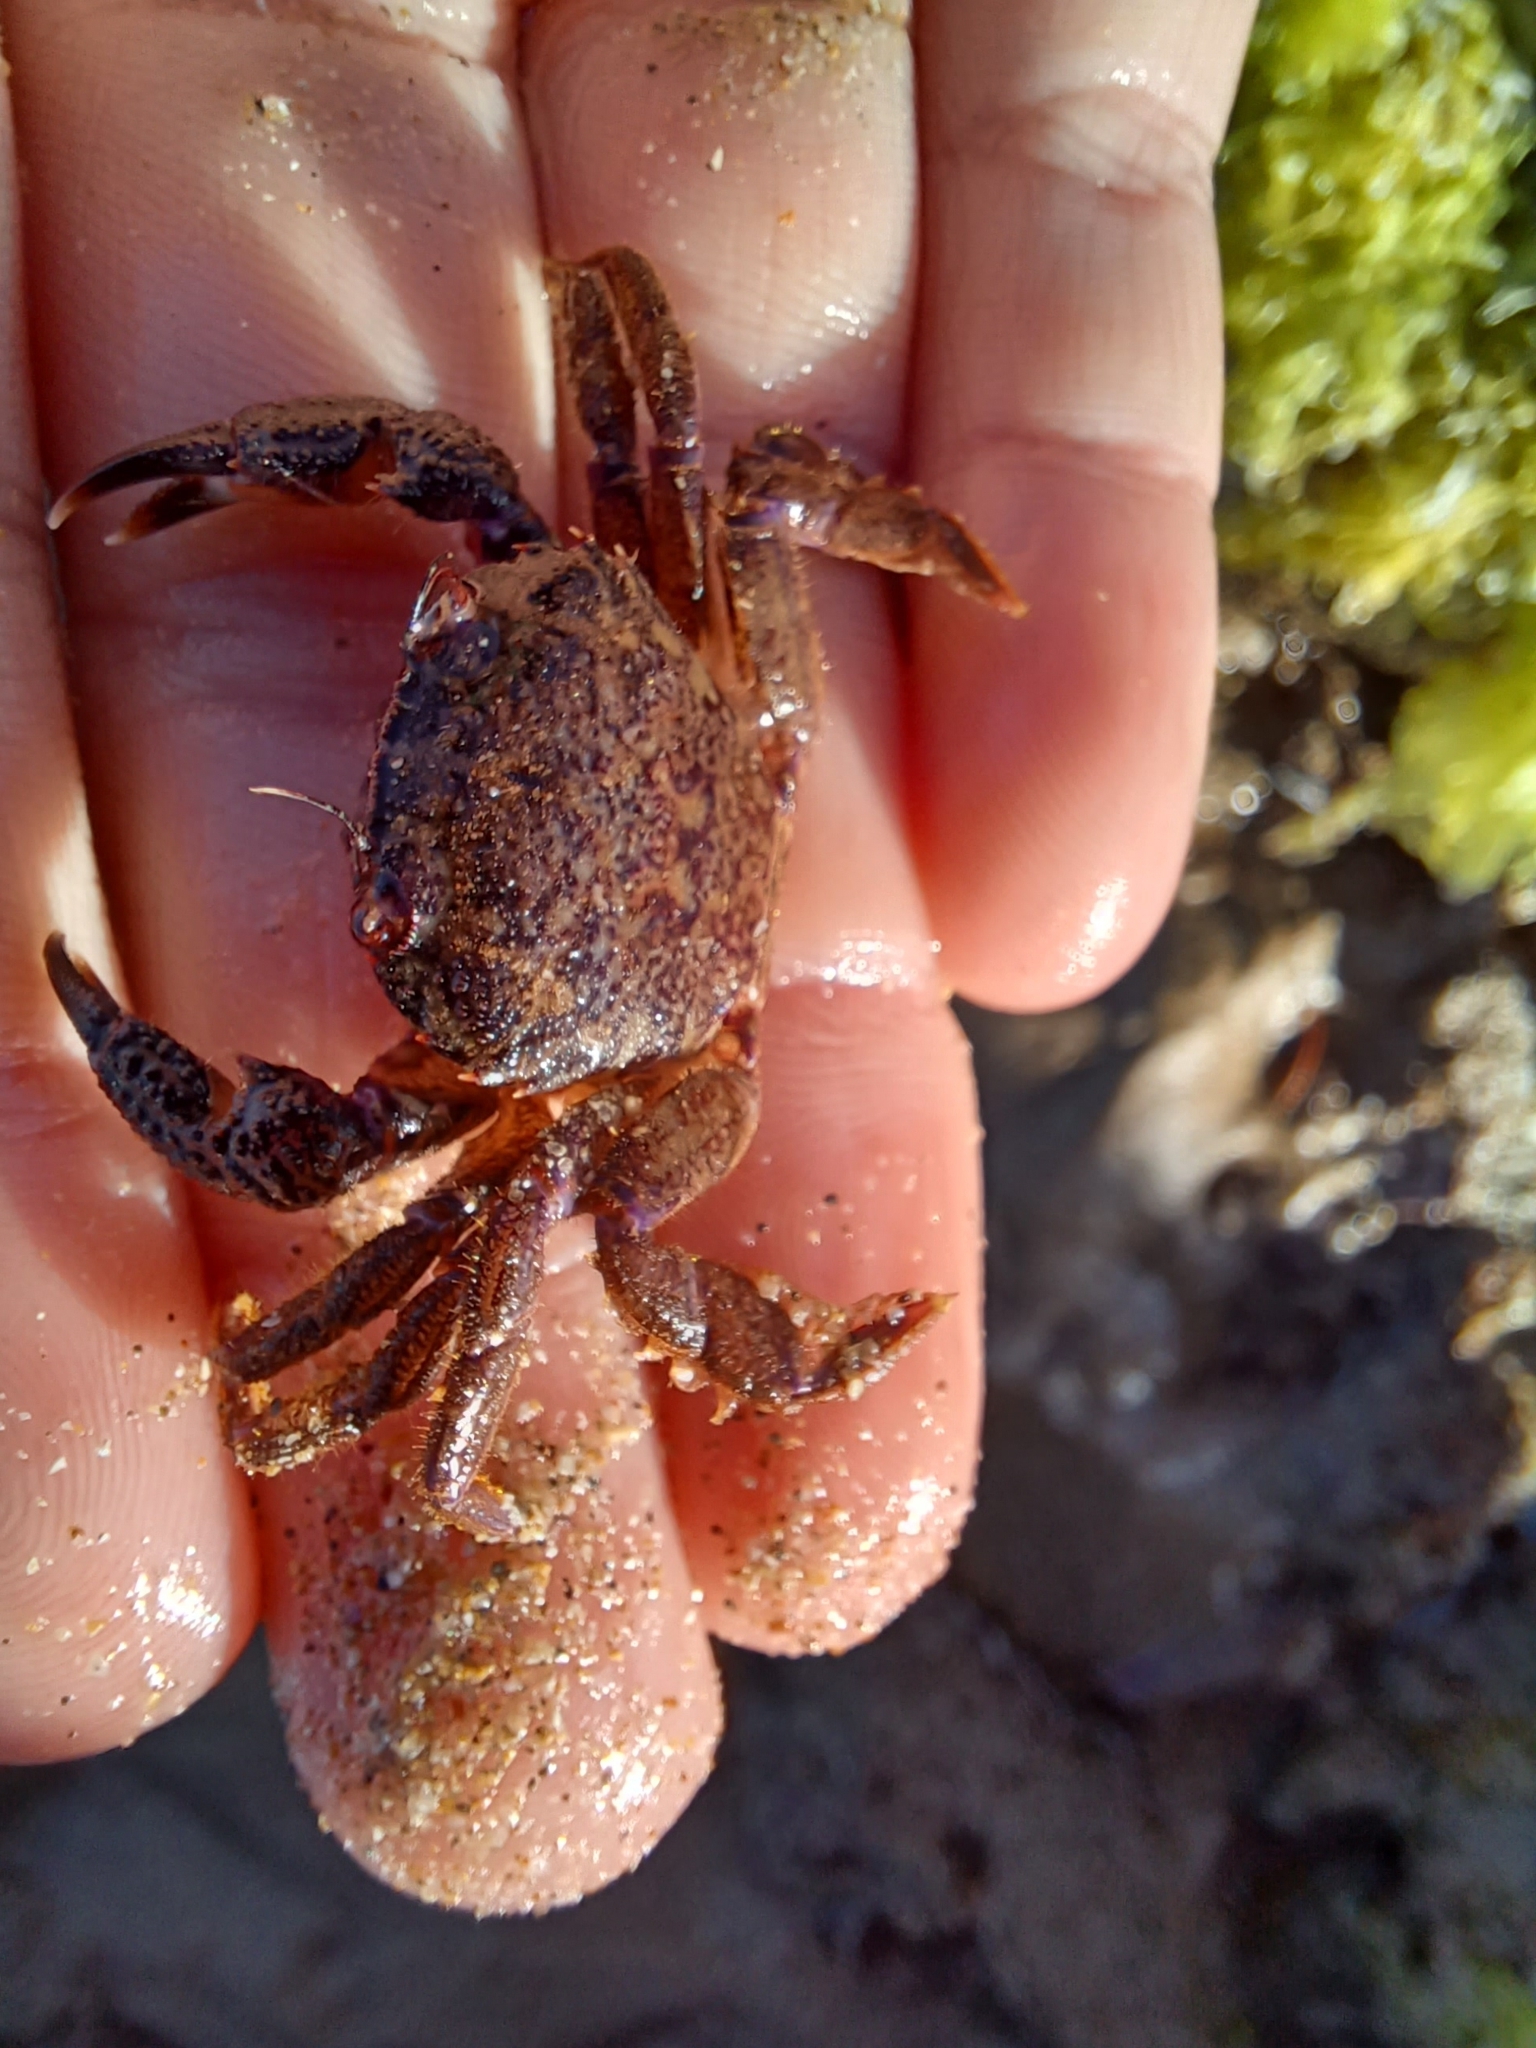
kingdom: Animalia
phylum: Arthropoda
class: Malacostraca
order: Decapoda
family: Geryonidae
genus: Nectocarcinus
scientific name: Nectocarcinus tuberculosus
